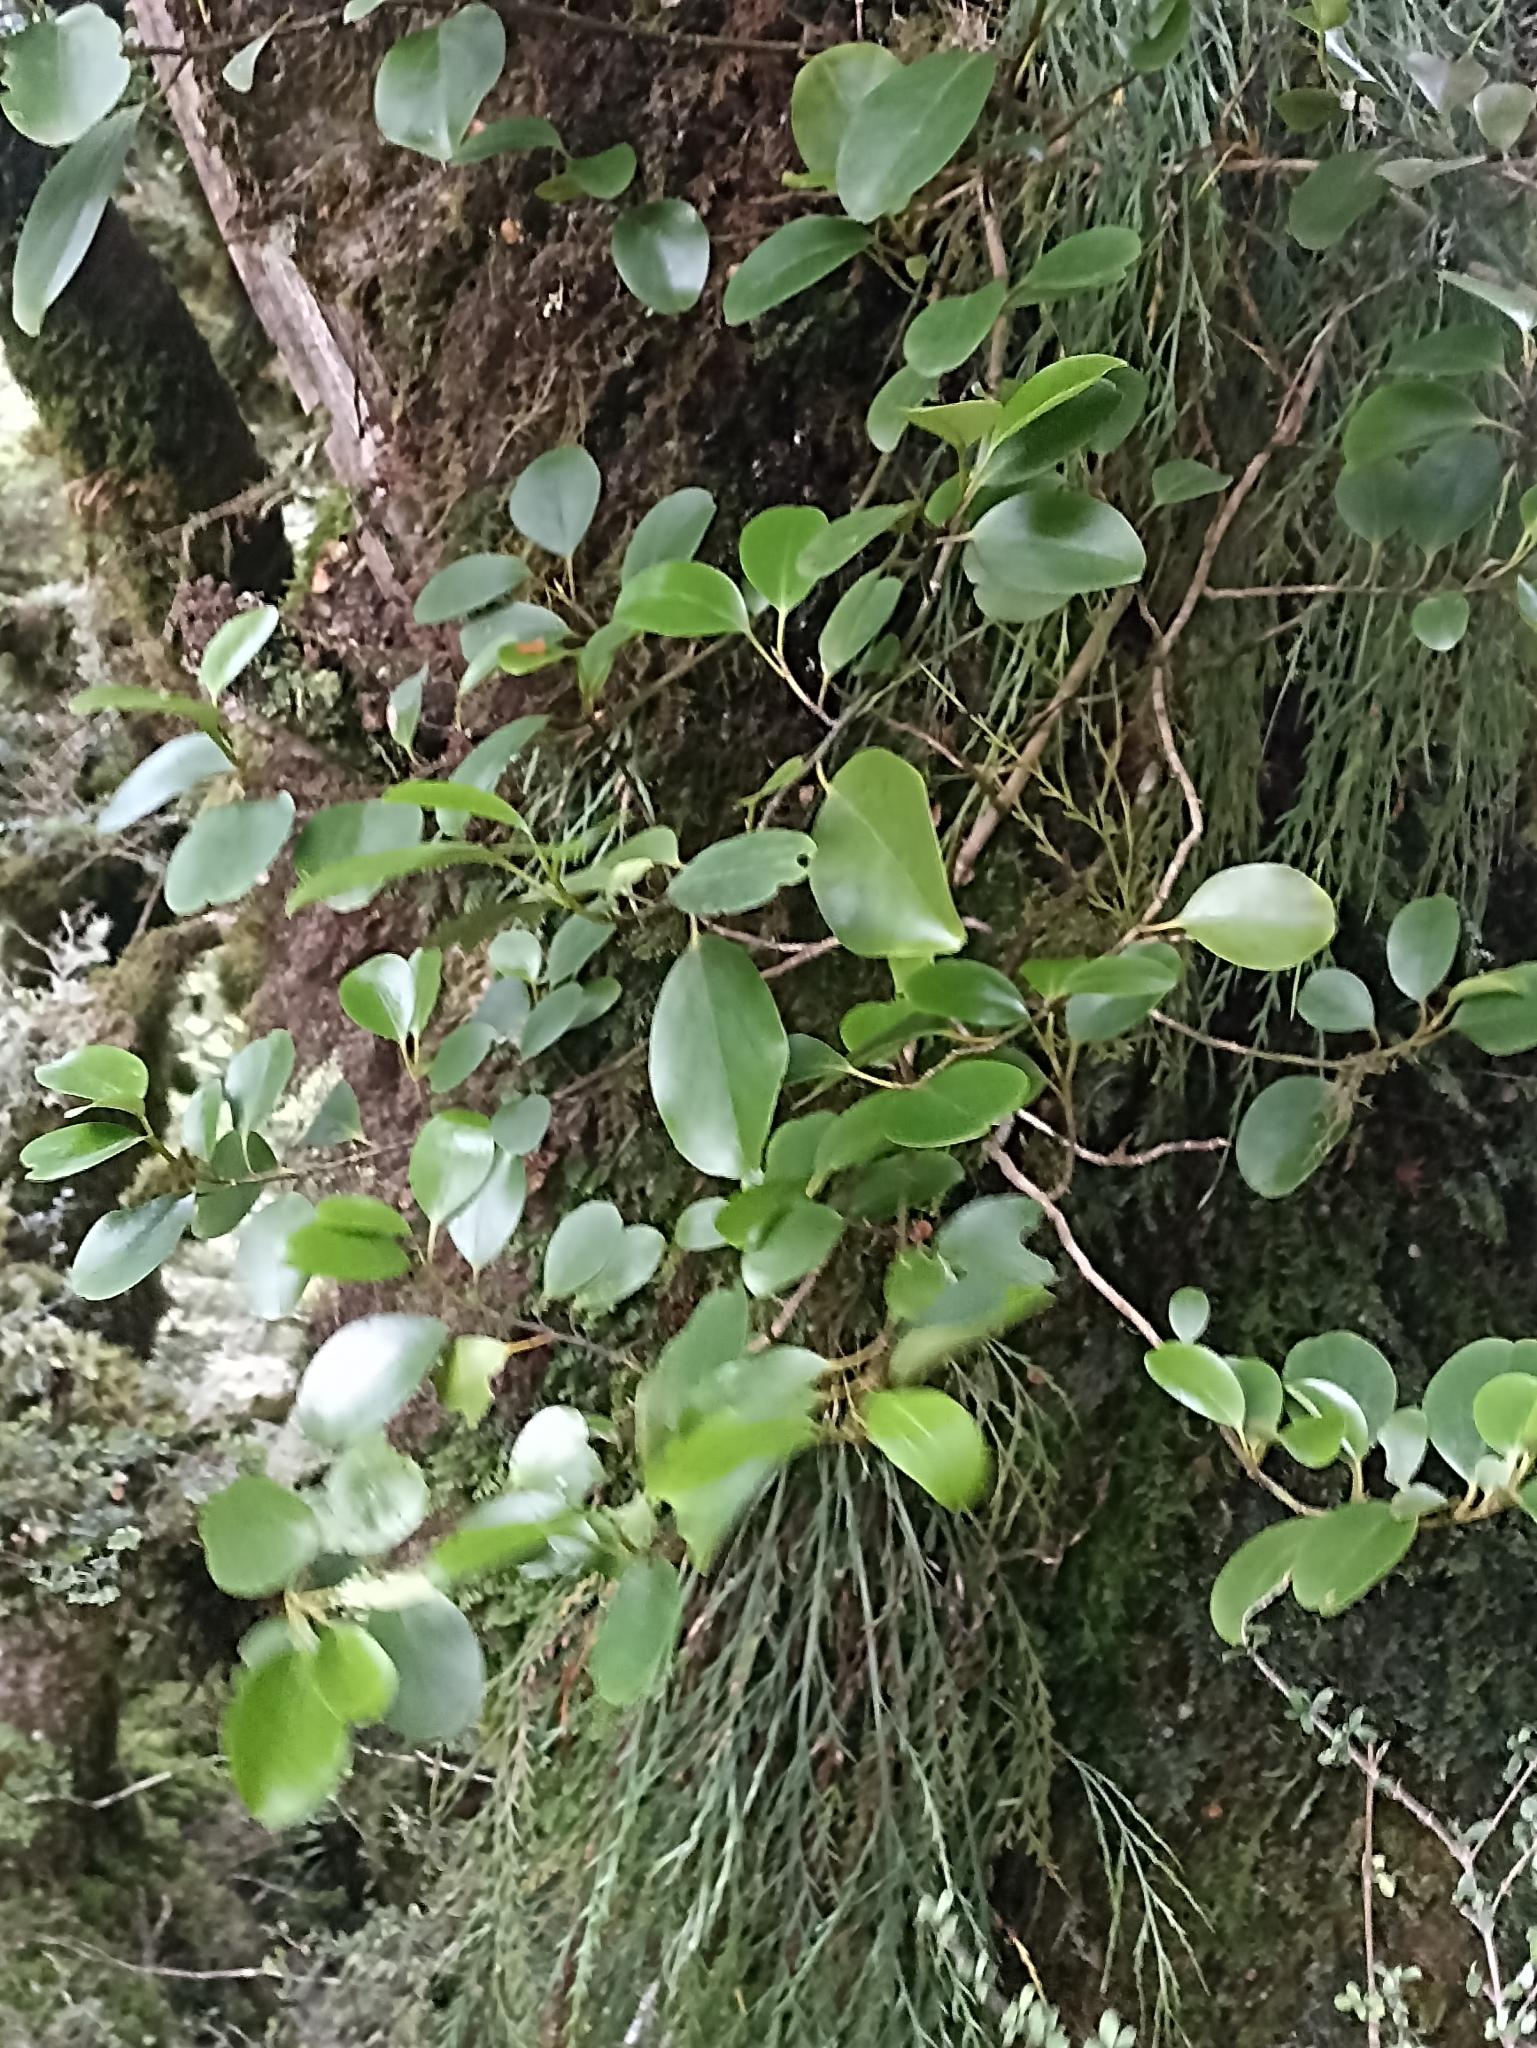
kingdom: Plantae
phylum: Tracheophyta
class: Magnoliopsida
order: Apiales
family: Griseliniaceae
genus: Griselinia
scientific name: Griselinia littoralis
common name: New zealand broadleaf
